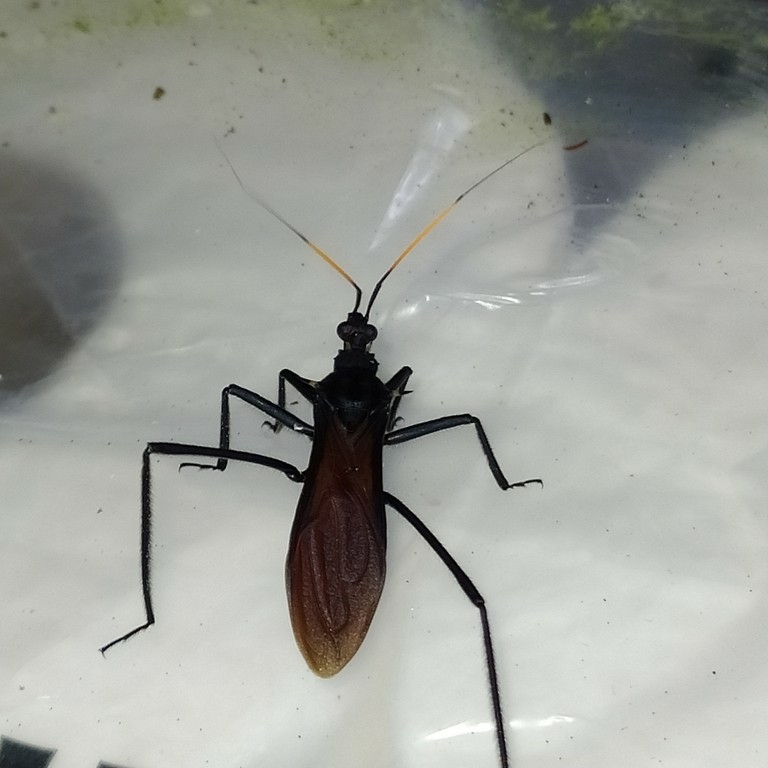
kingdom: Animalia
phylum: Arthropoda
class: Insecta
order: Hemiptera
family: Reduviidae
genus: Zelurus
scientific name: Zelurus spinidorsis
